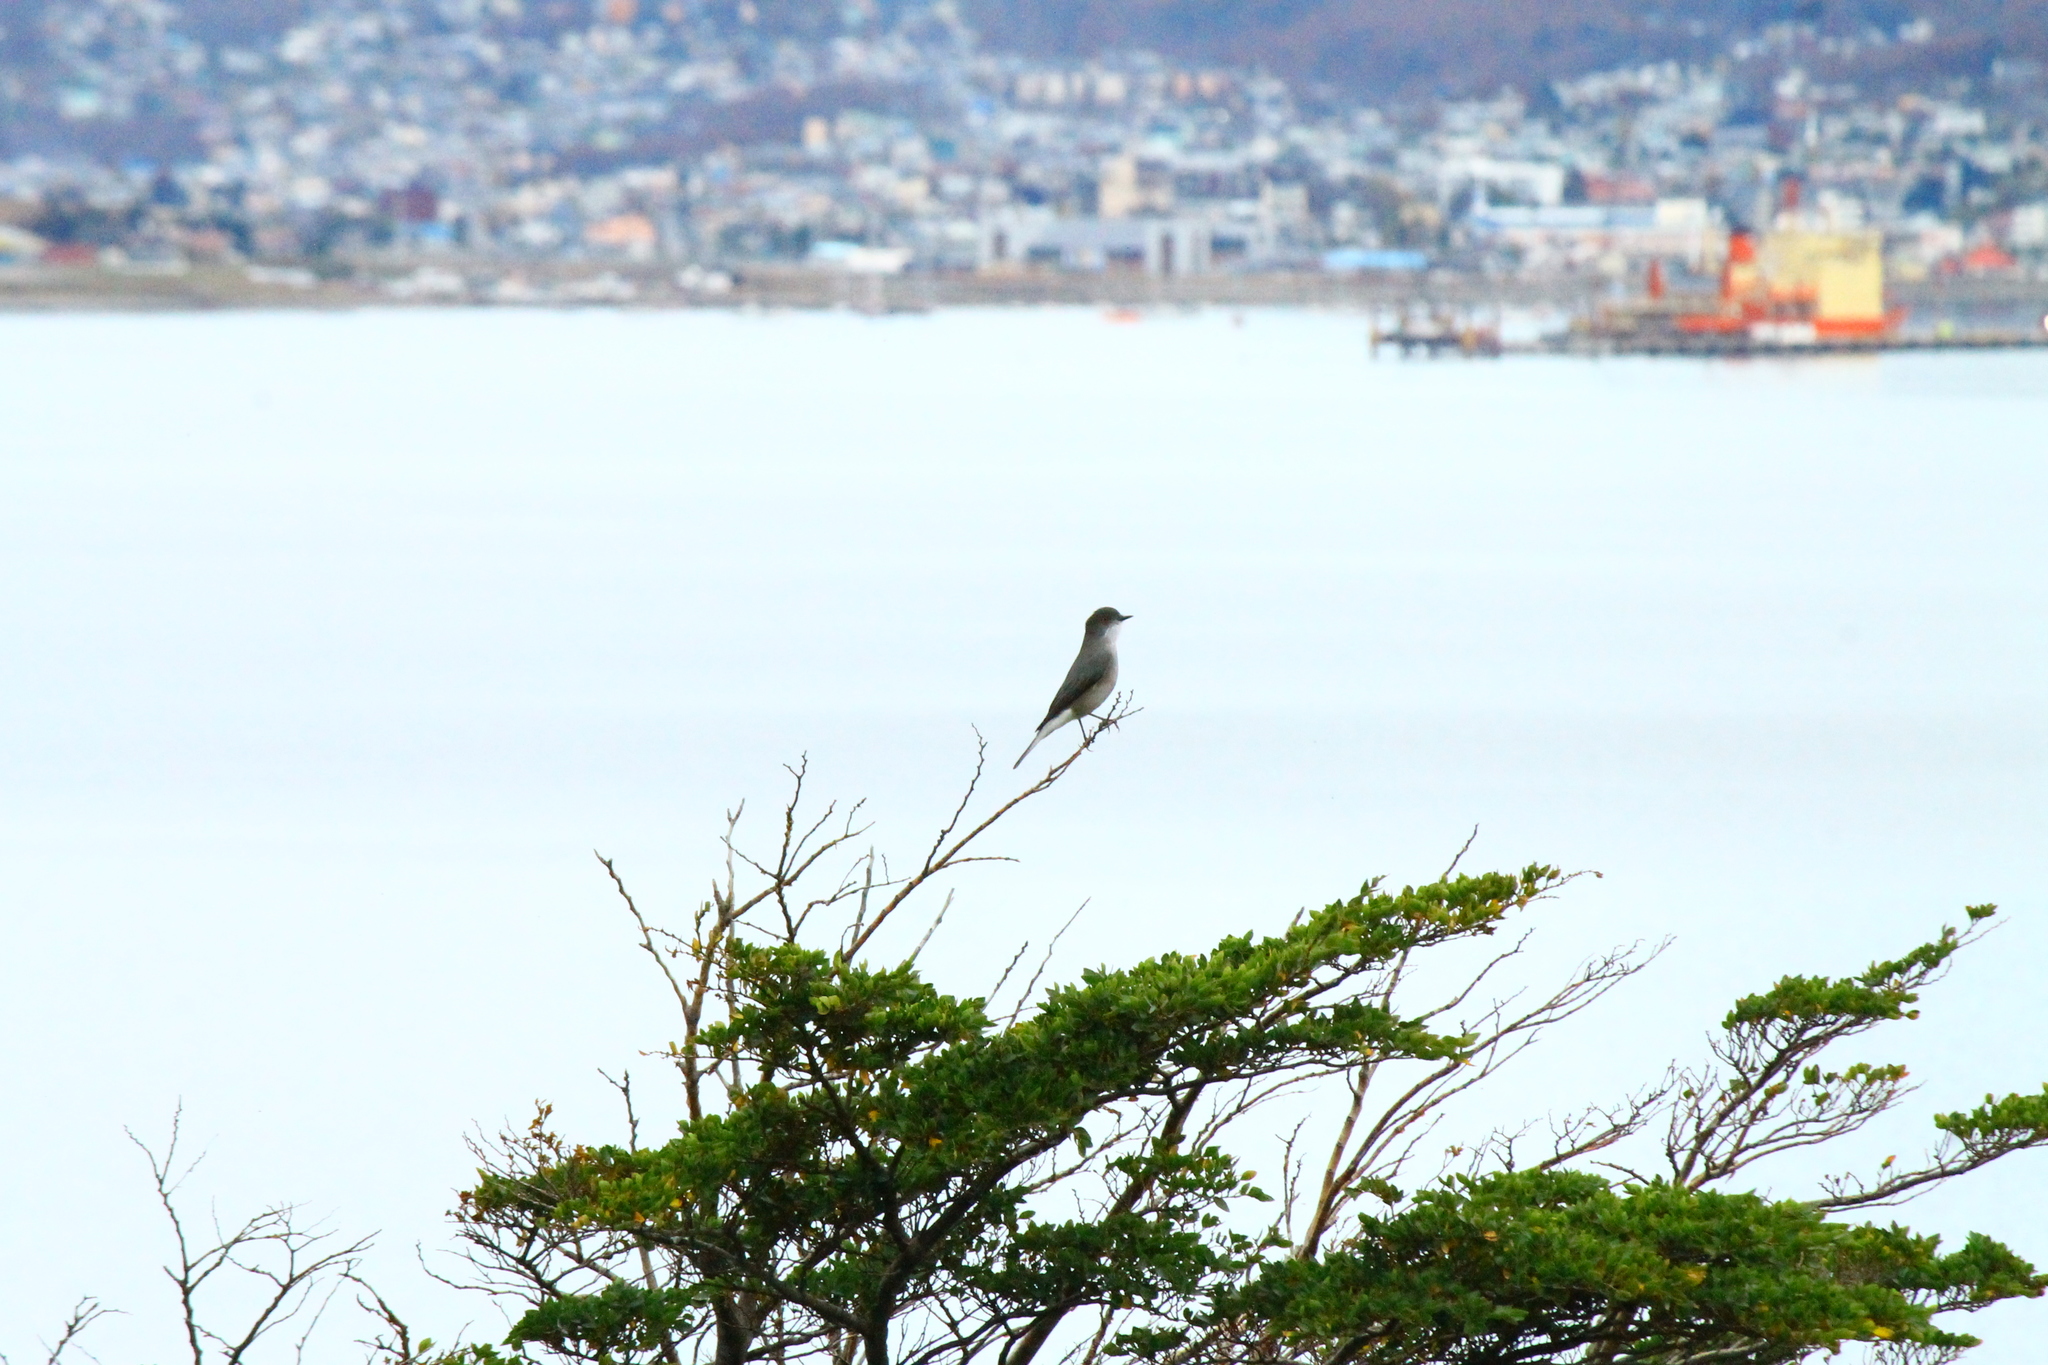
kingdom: Animalia
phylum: Chordata
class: Aves
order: Passeriformes
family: Tyrannidae
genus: Xolmis
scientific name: Xolmis pyrope
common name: Fire-eyed diucon
